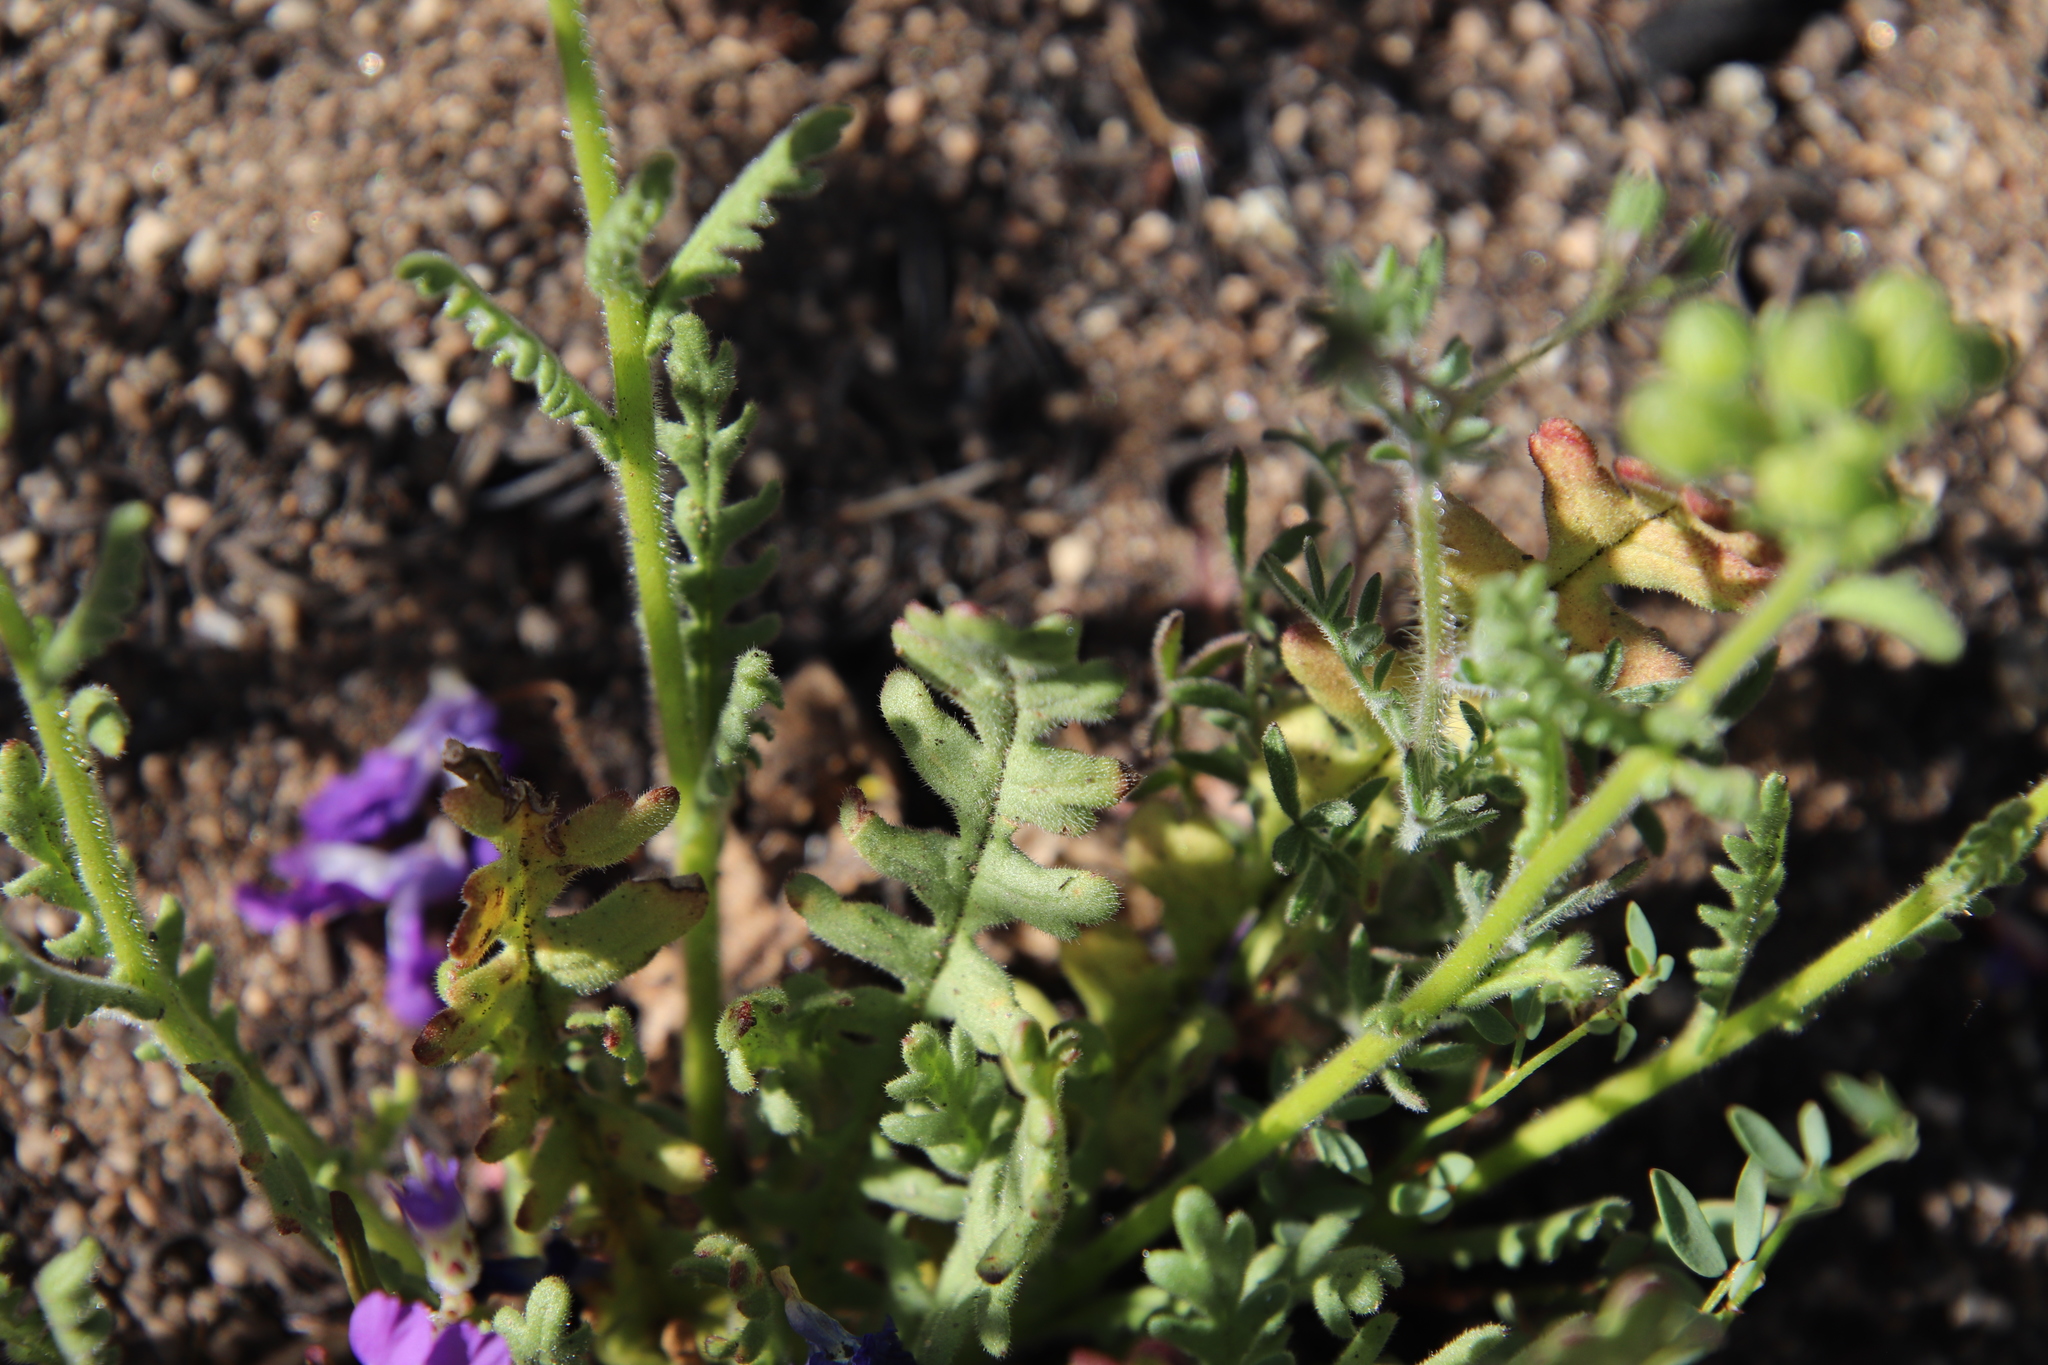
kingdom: Plantae
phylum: Tracheophyta
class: Magnoliopsida
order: Lamiales
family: Plantaginaceae
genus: Collinsia
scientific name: Collinsia concolor
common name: Chinese houses
